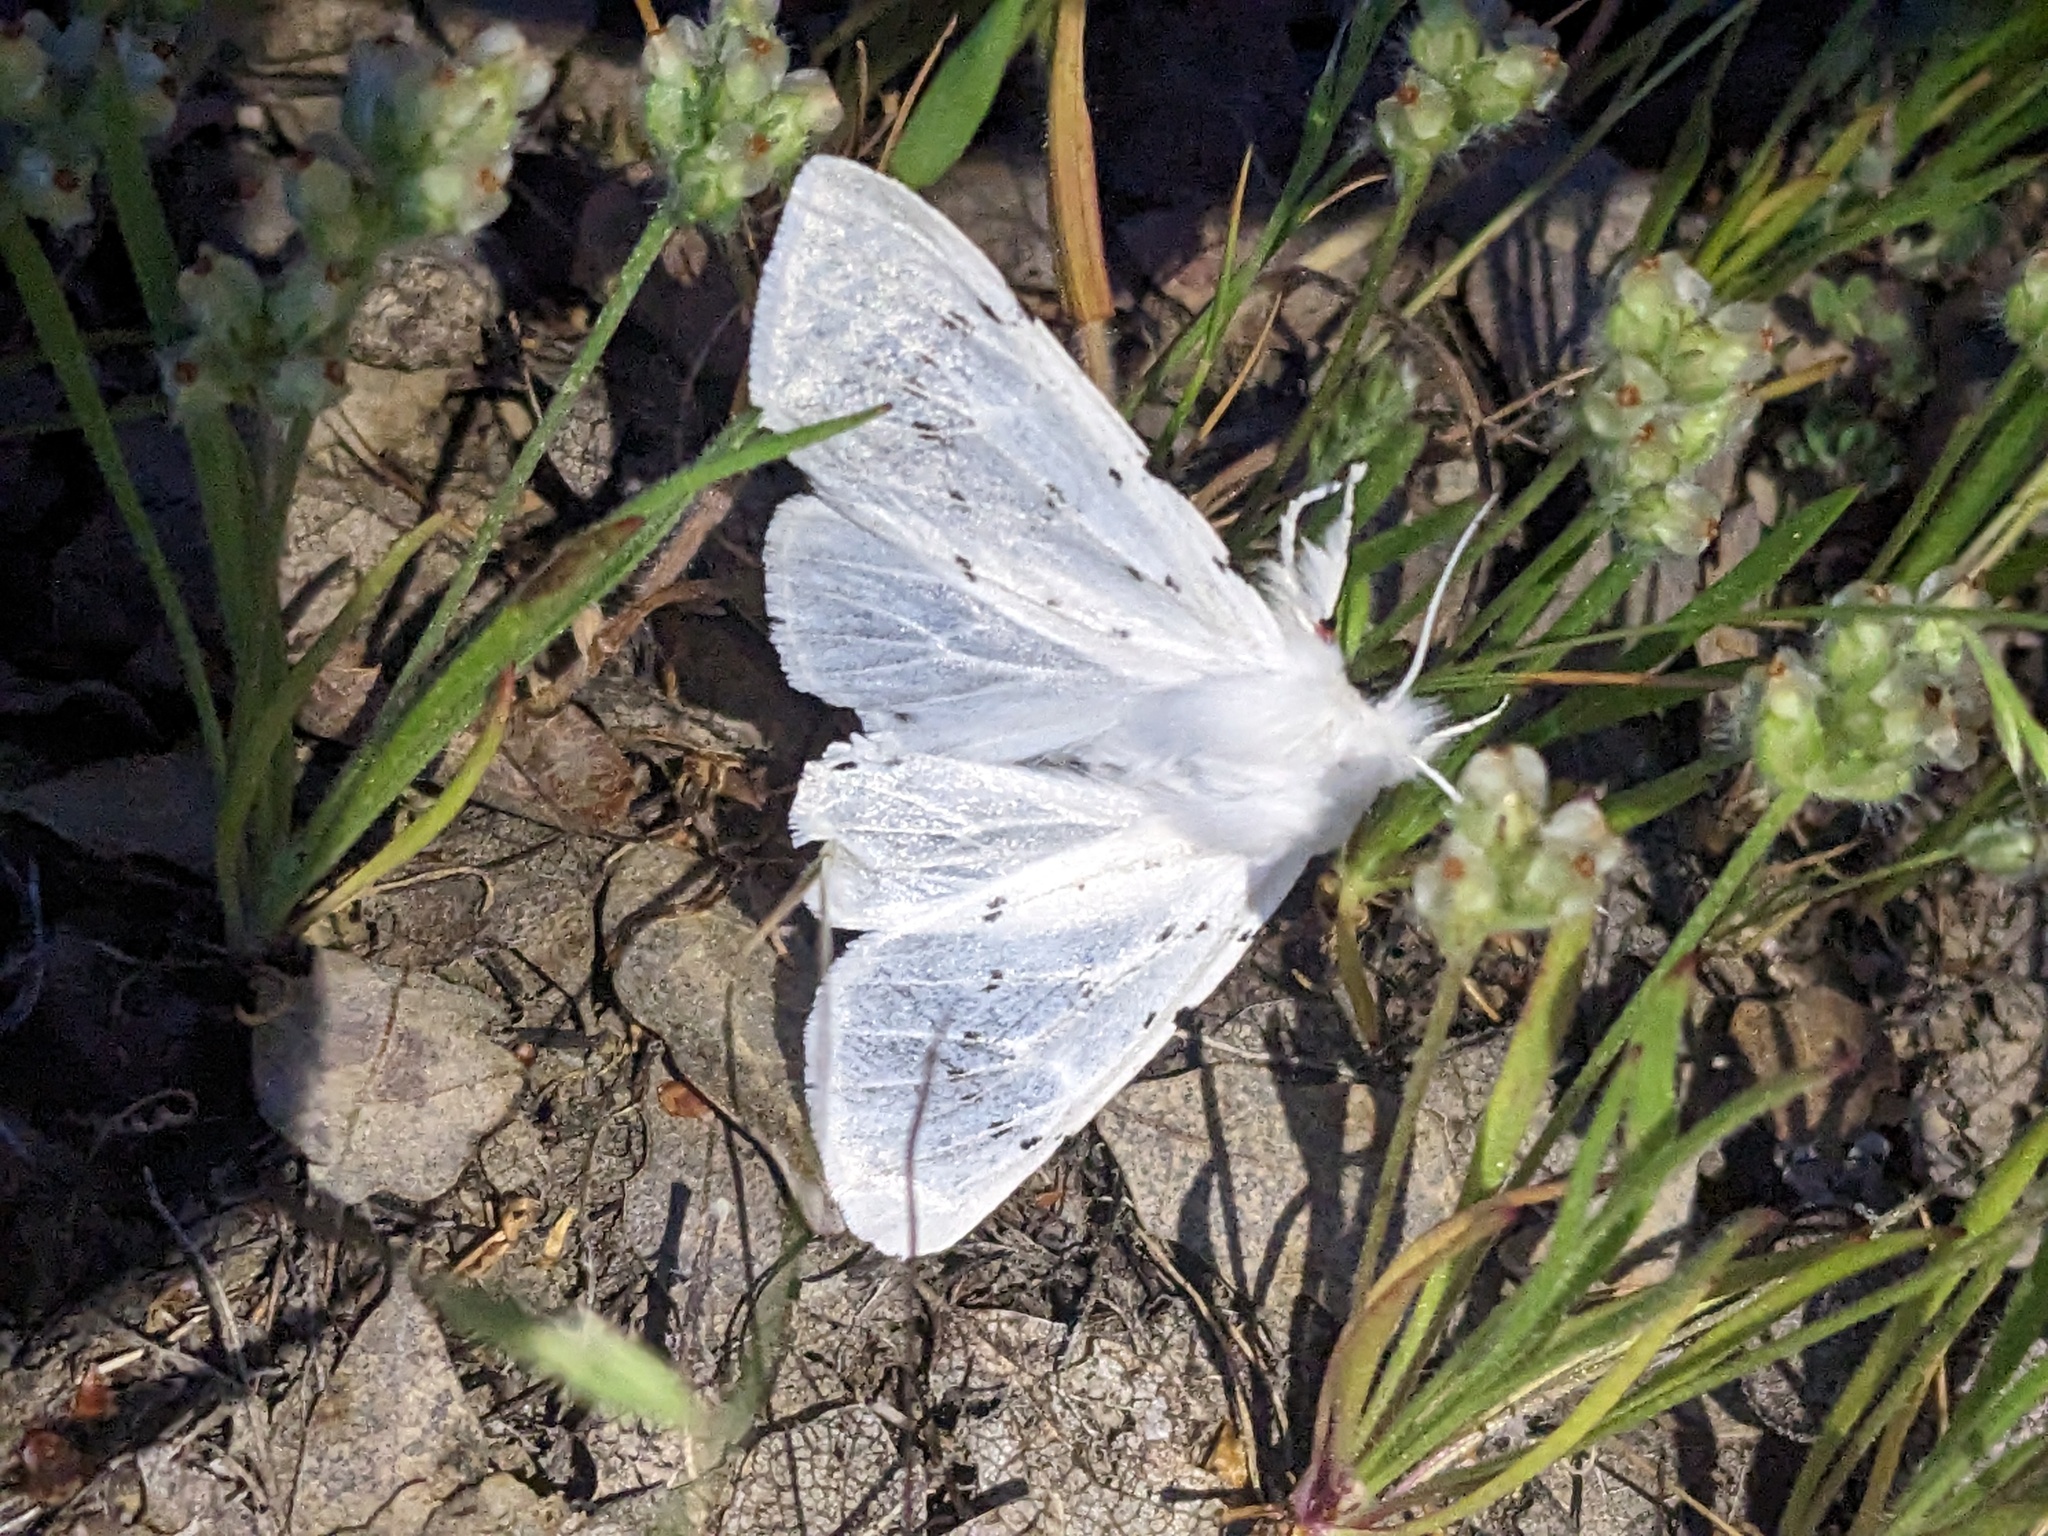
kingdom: Animalia
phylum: Arthropoda
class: Insecta
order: Lepidoptera
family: Erebidae
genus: Spilosoma
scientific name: Spilosoma vestalis
